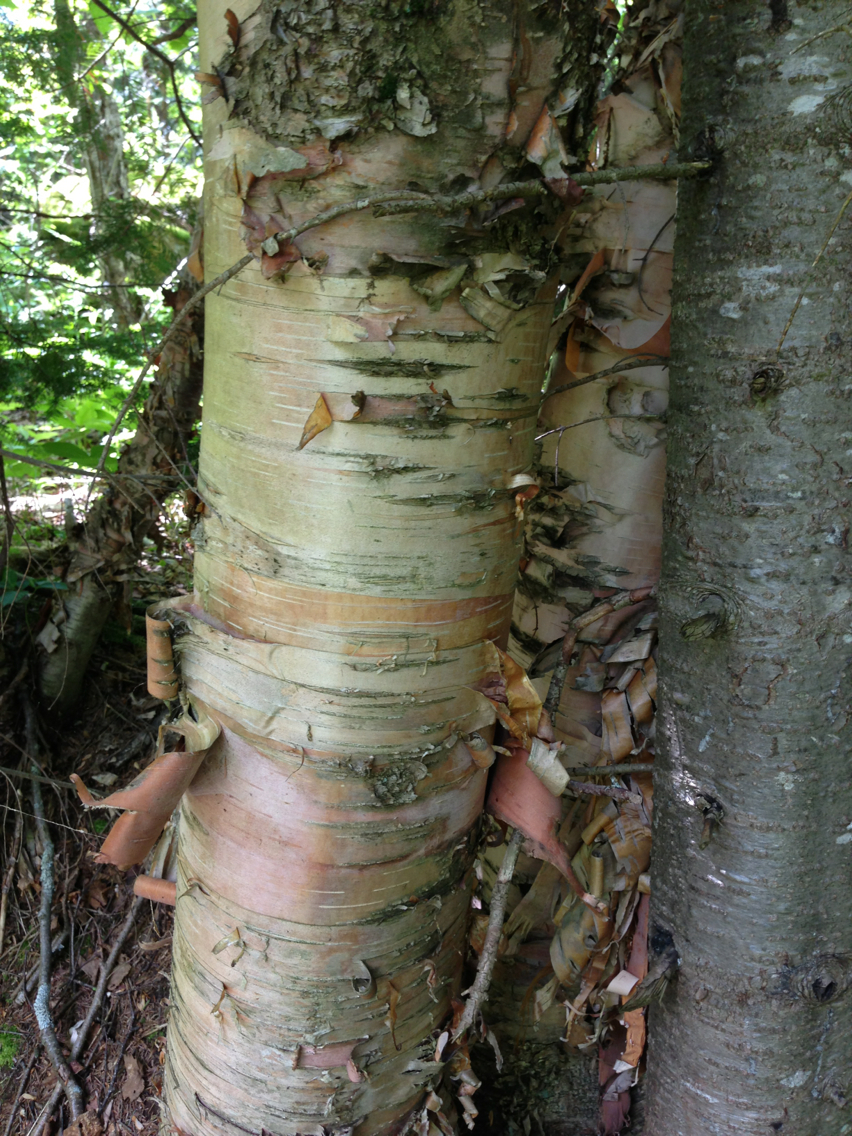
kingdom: Plantae
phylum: Tracheophyta
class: Magnoliopsida
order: Fagales
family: Betulaceae
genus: Betula
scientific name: Betula cordifolia
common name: Mountain white birch
